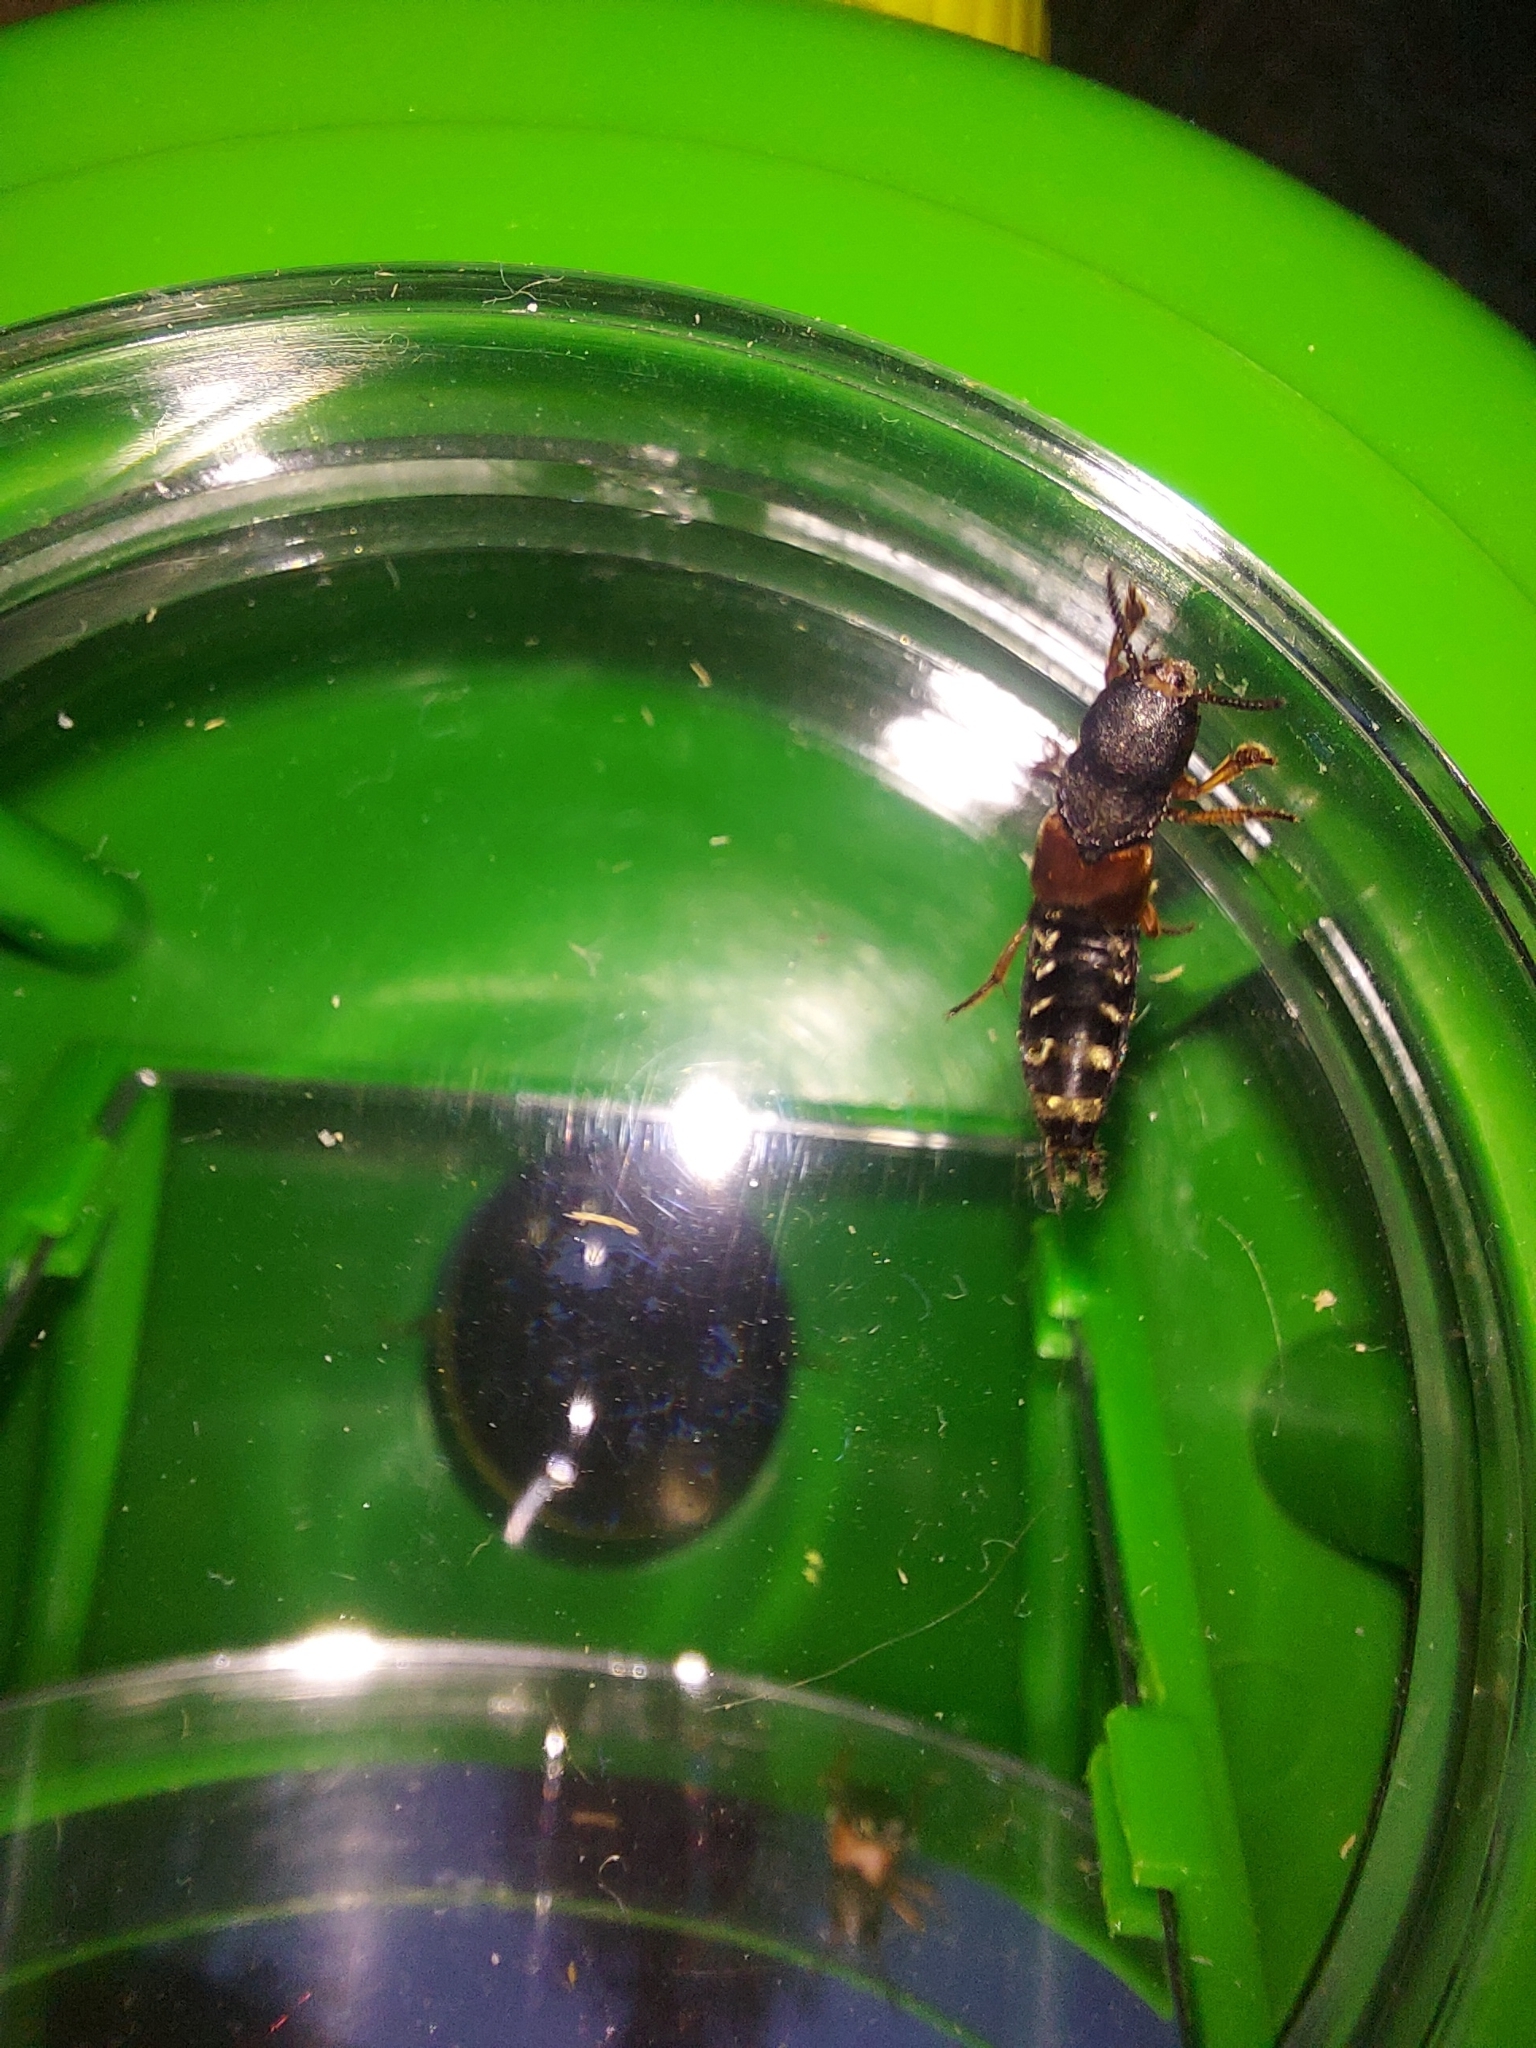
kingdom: Animalia
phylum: Arthropoda
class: Insecta
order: Coleoptera
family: Staphylinidae
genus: Platydracus
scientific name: Platydracus stercorarius
